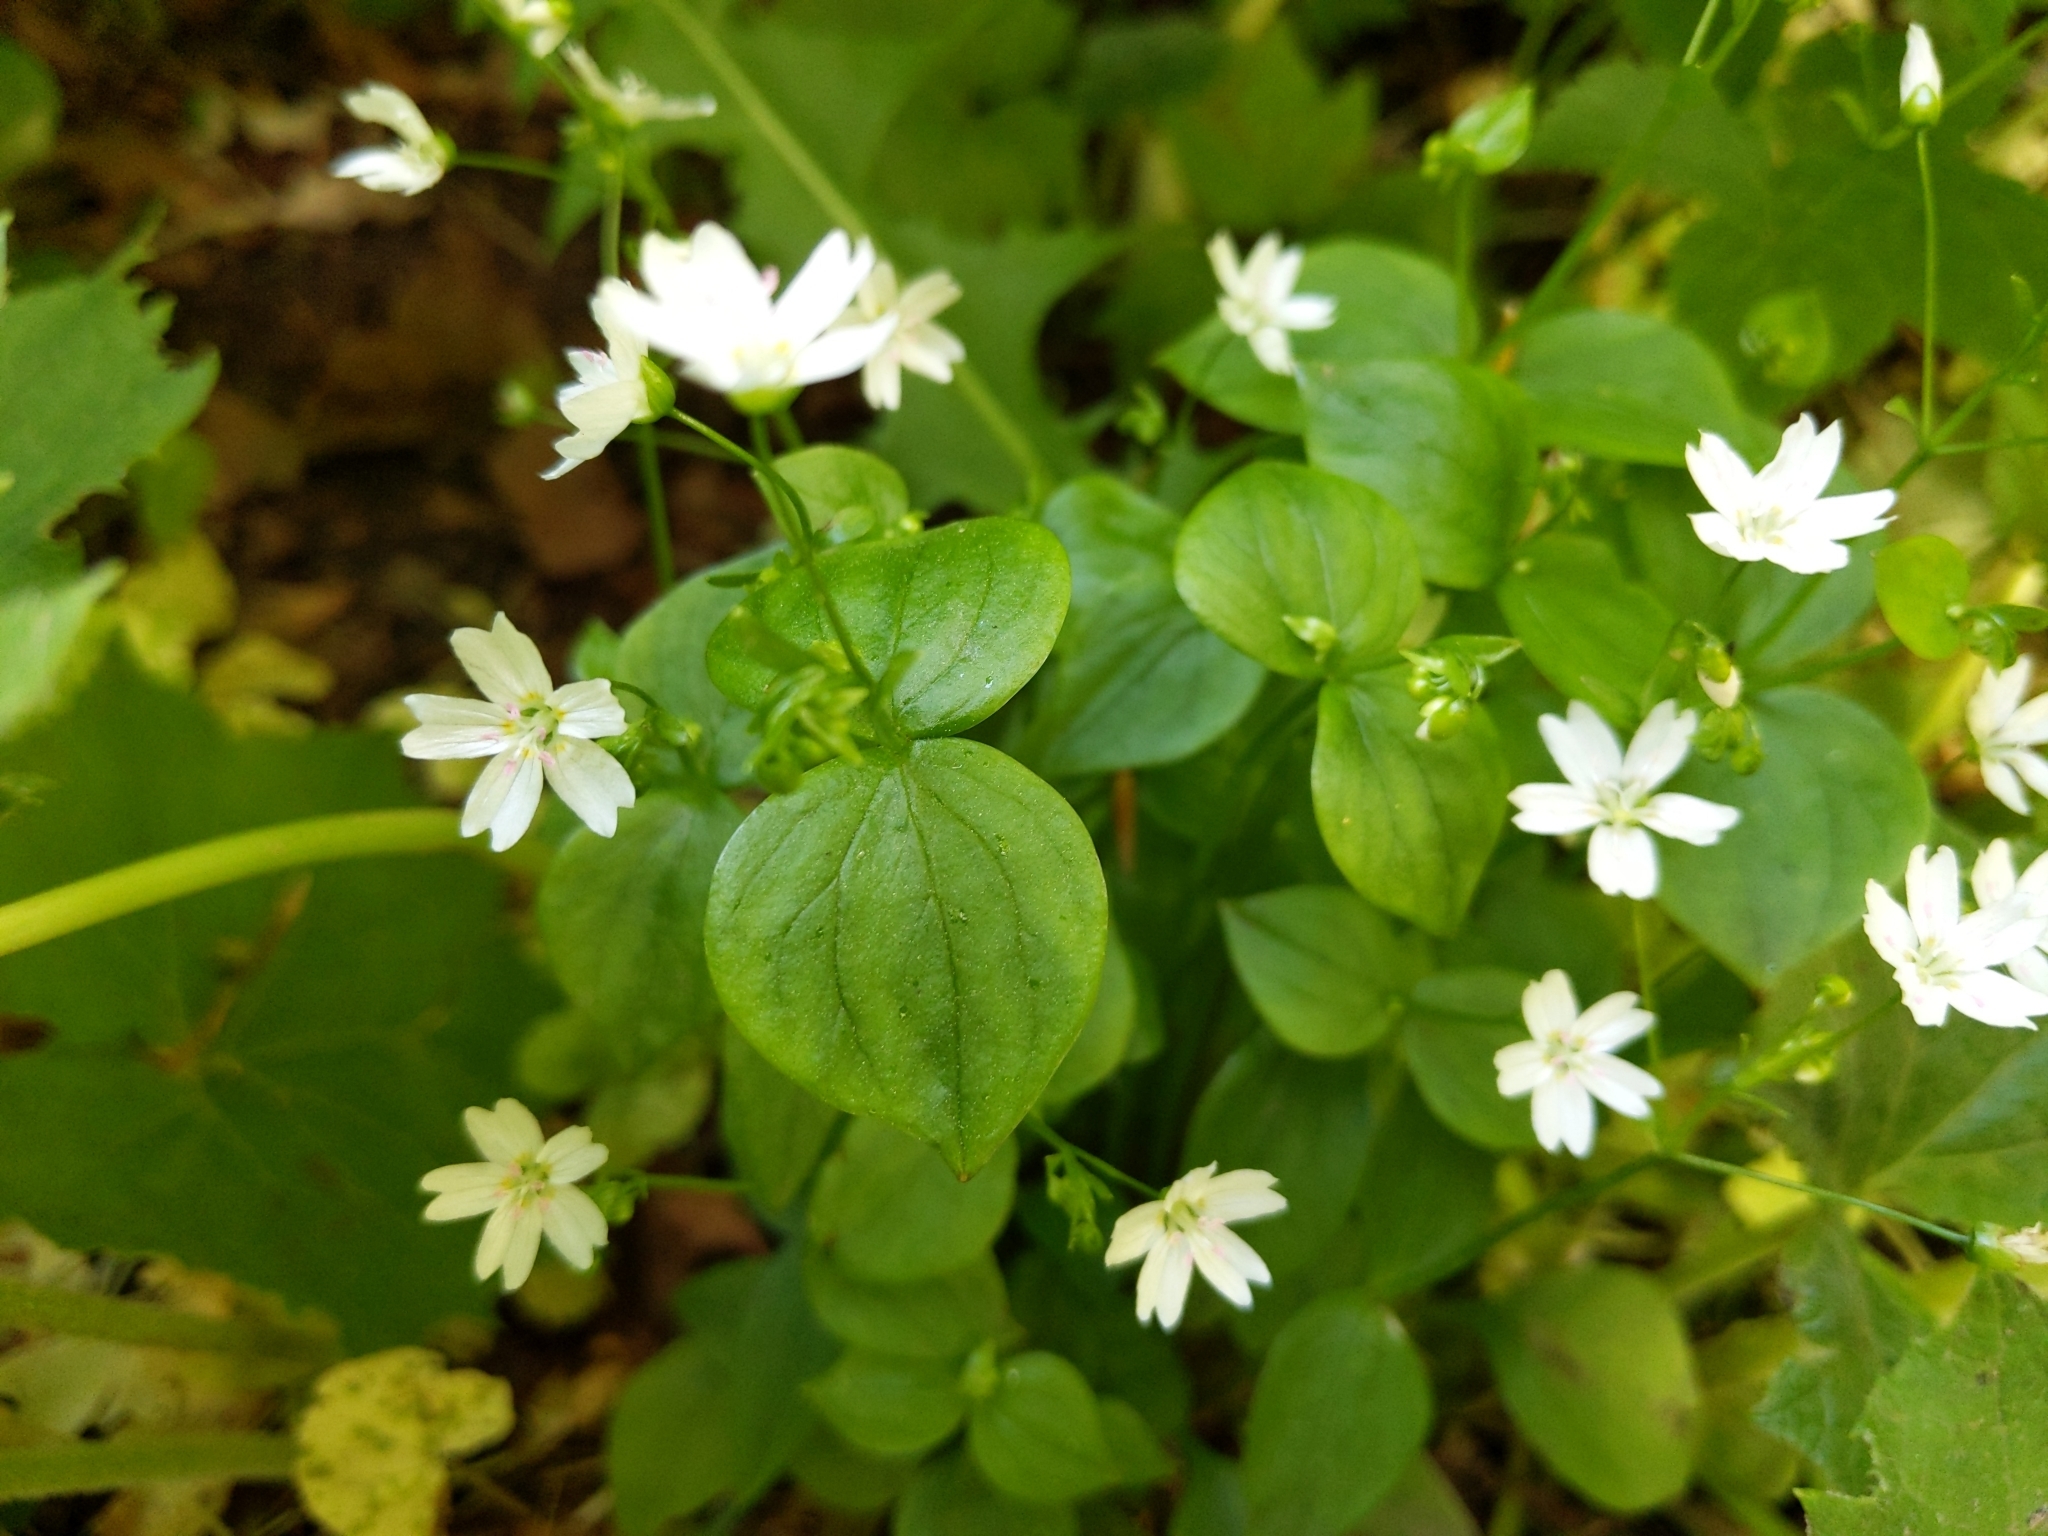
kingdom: Plantae
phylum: Tracheophyta
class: Magnoliopsida
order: Caryophyllales
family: Montiaceae
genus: Claytonia
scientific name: Claytonia sibirica
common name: Pink purslane
